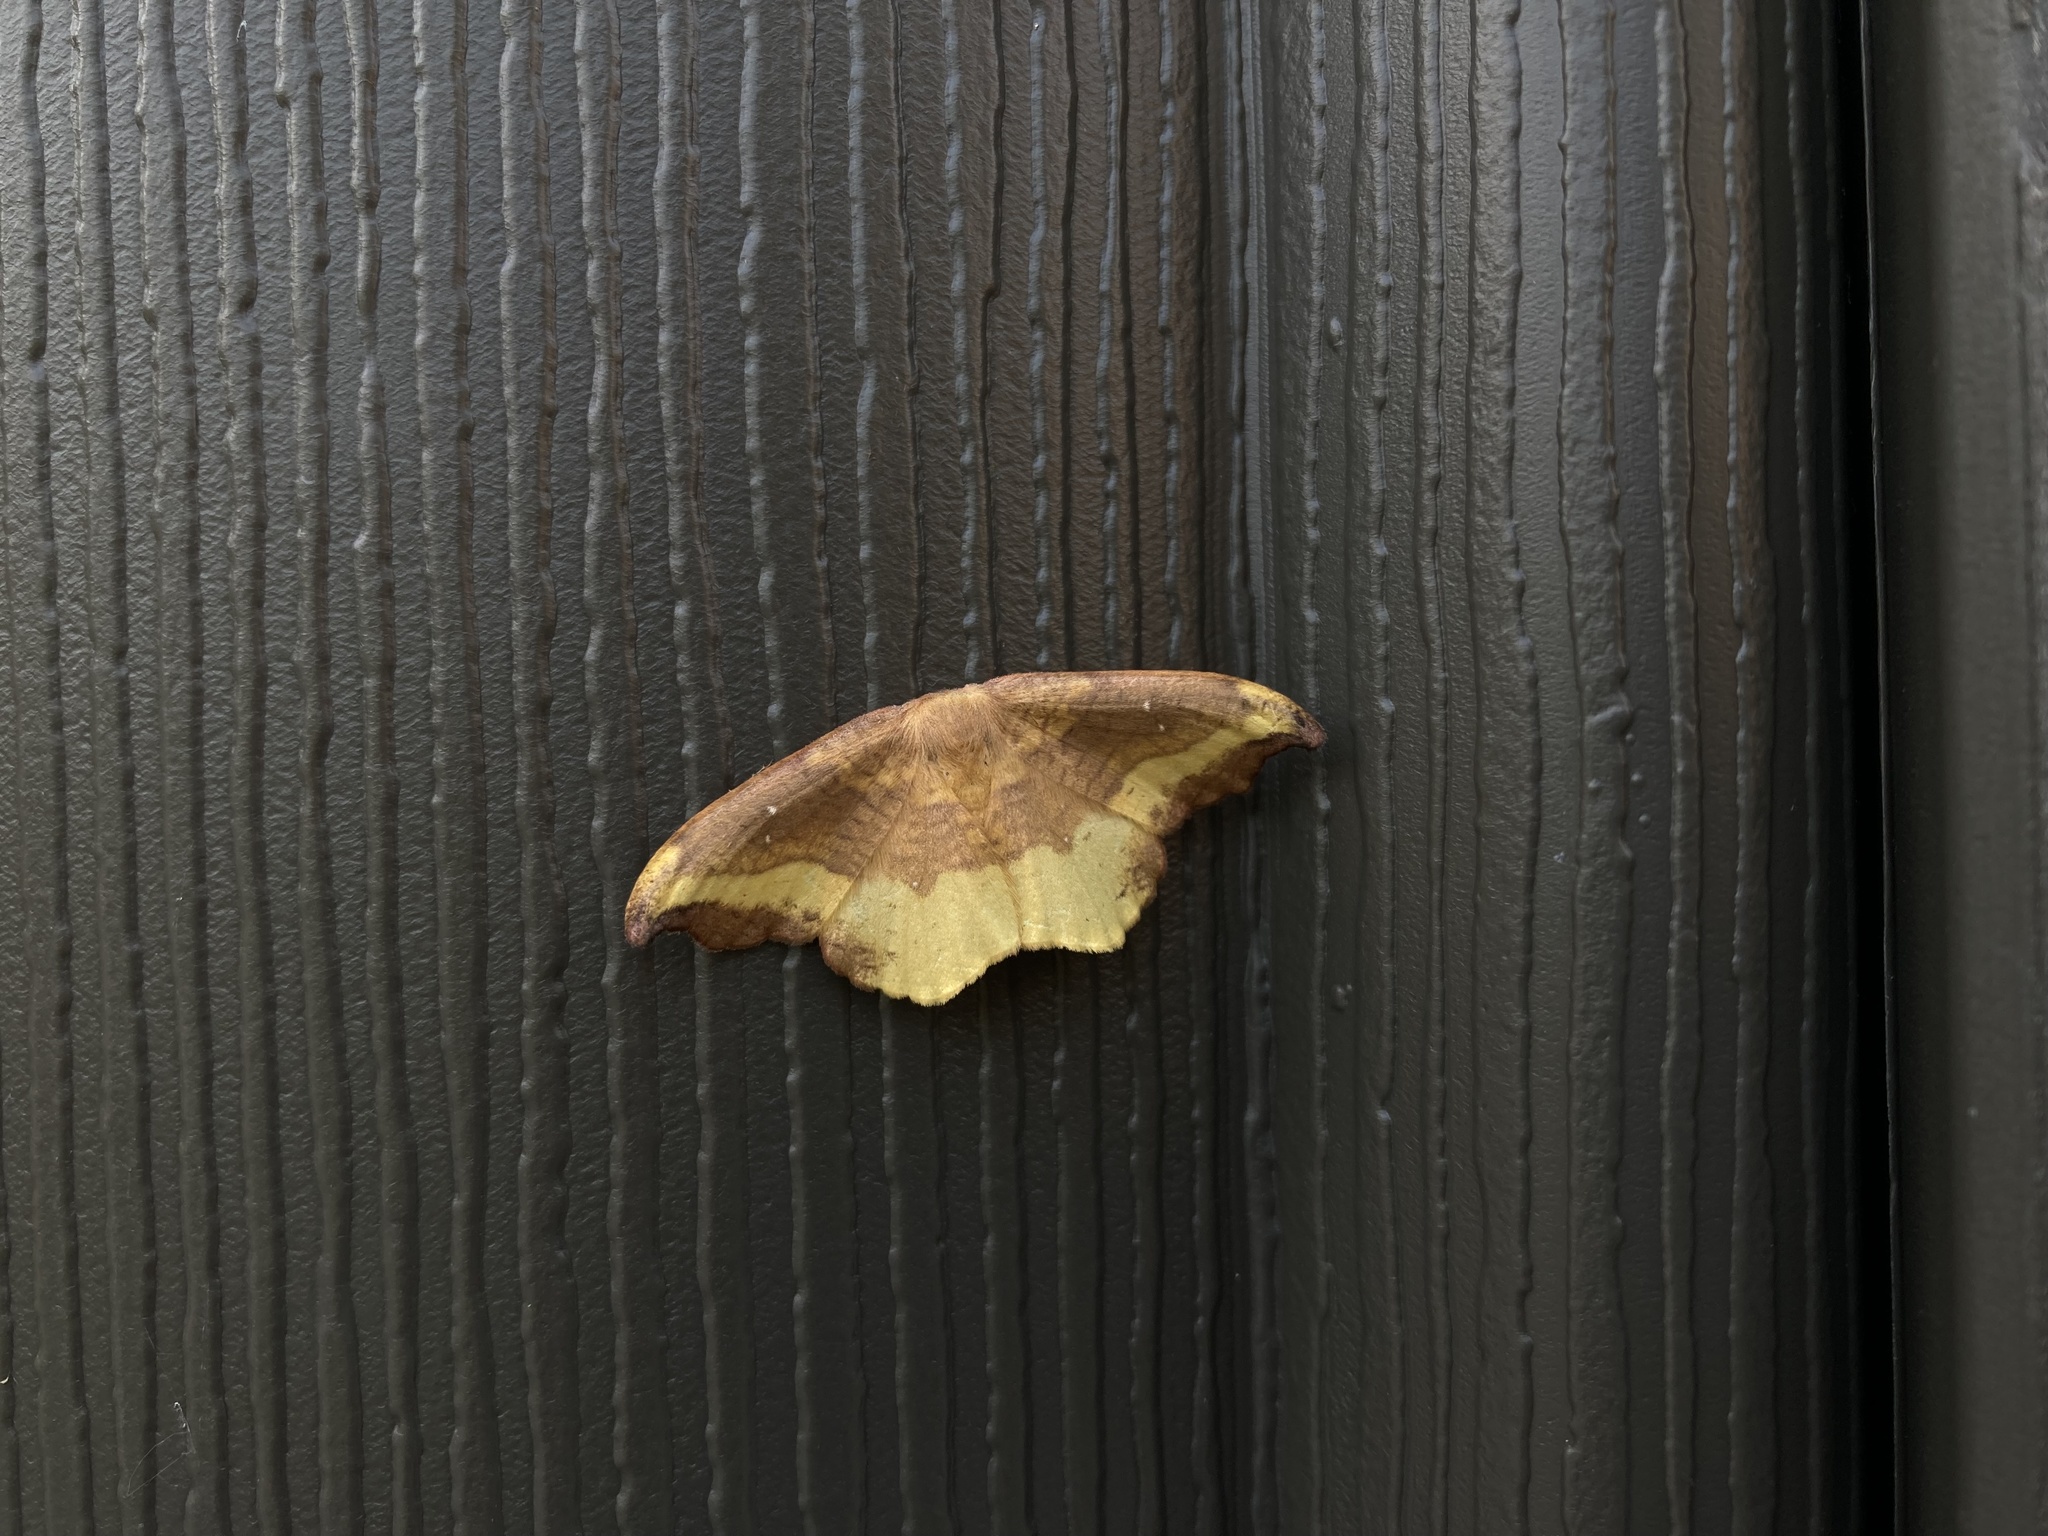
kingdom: Animalia
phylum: Arthropoda
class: Insecta
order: Lepidoptera
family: Drepanidae
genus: Oreta
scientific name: Oreta rosea
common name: Rose hooktip
